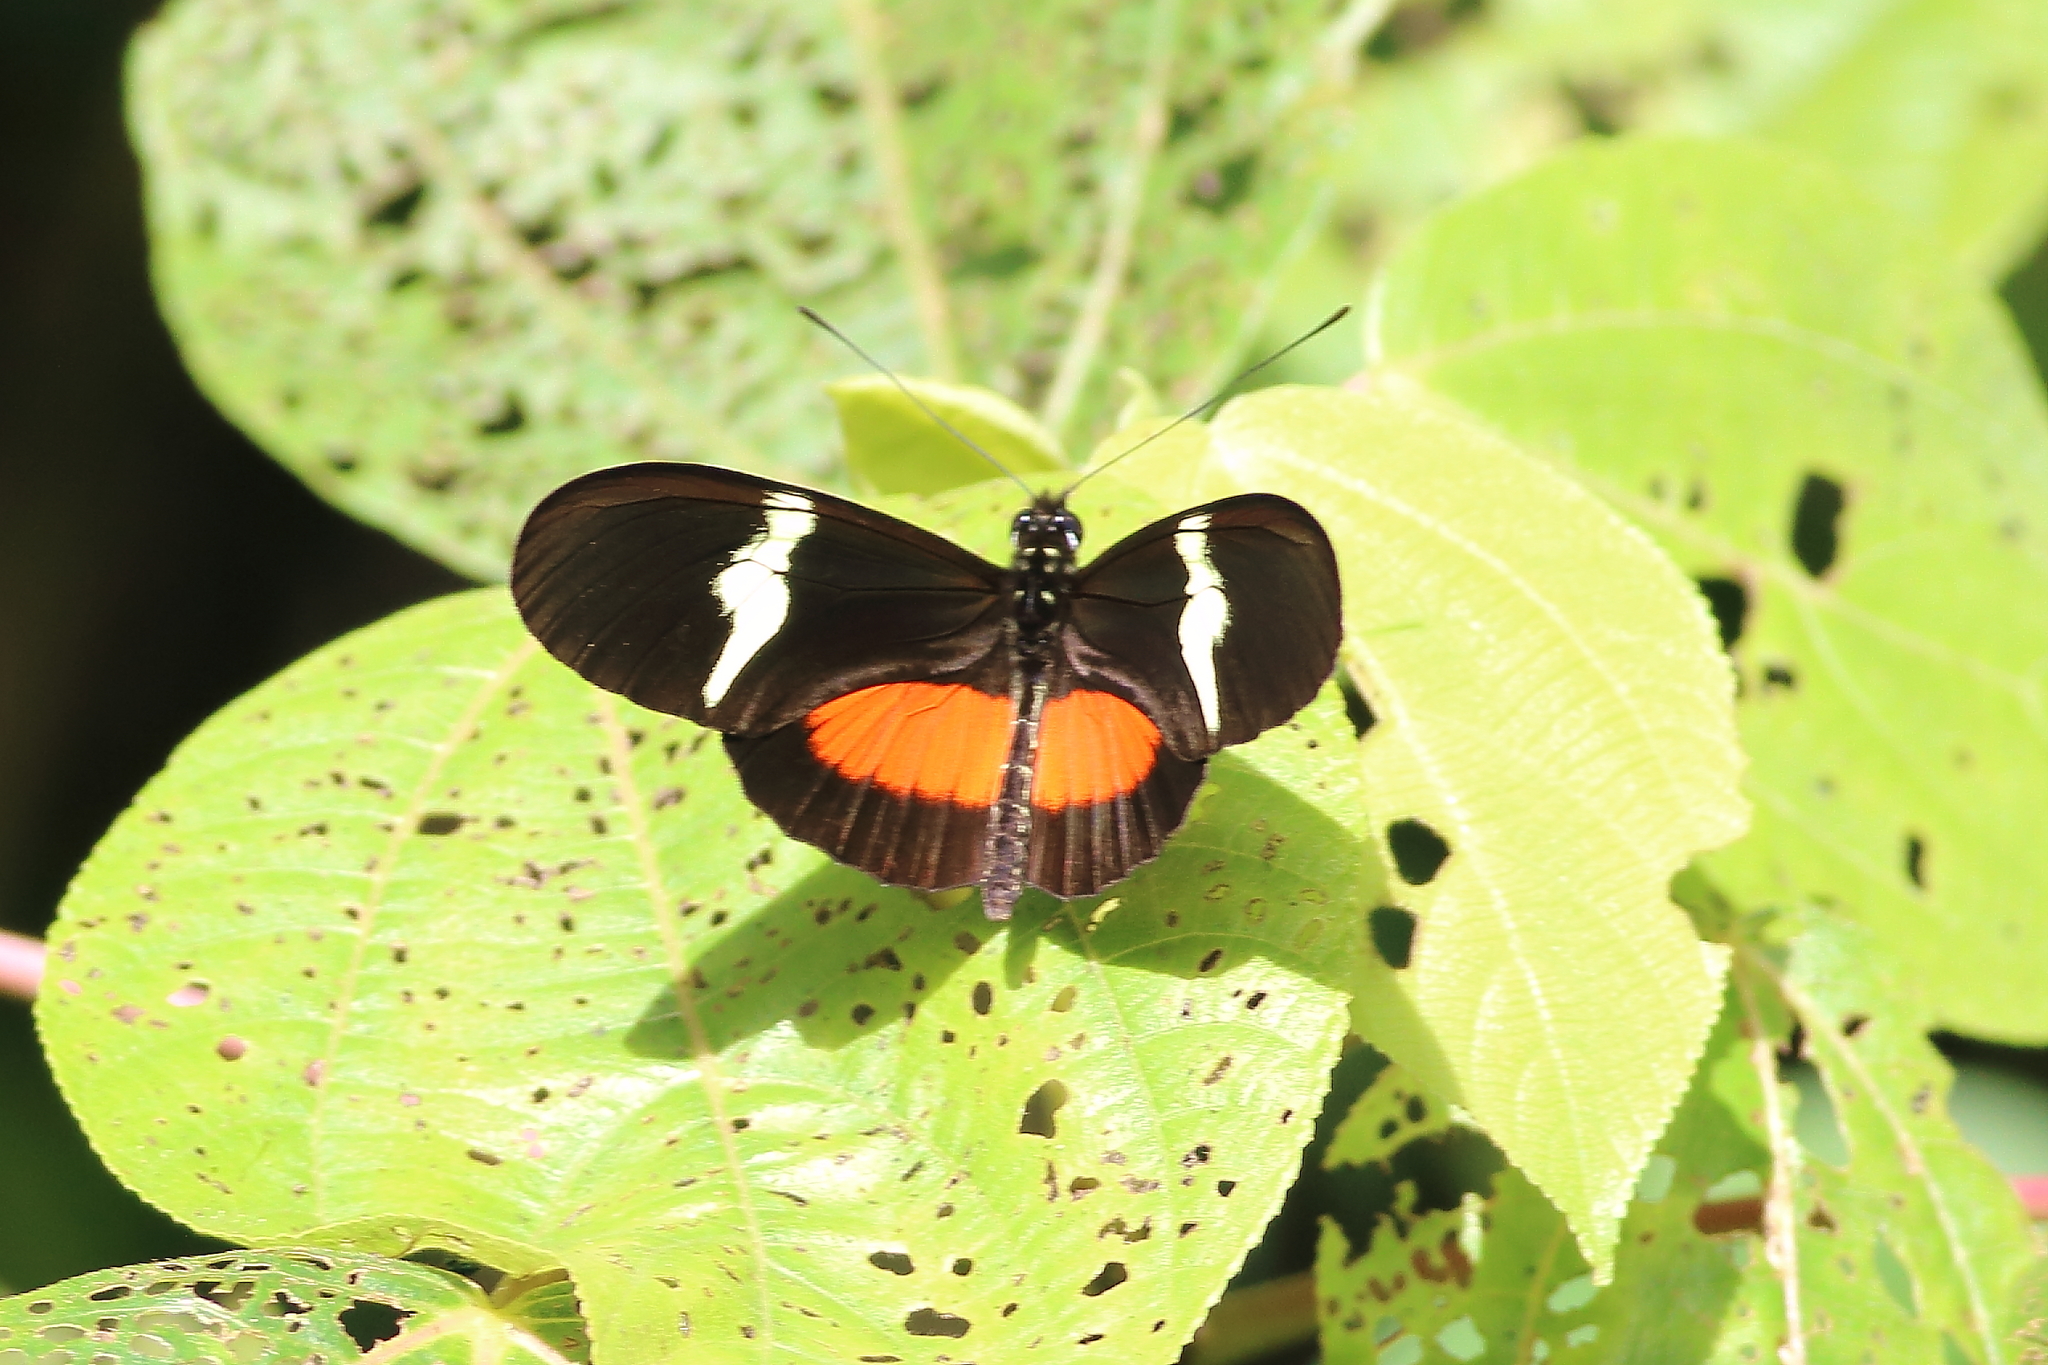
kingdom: Animalia
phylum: Arthropoda
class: Insecta
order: Lepidoptera
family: Nymphalidae
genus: Heliconius
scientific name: Heliconius clysonymus
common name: Clysonymus longwing
